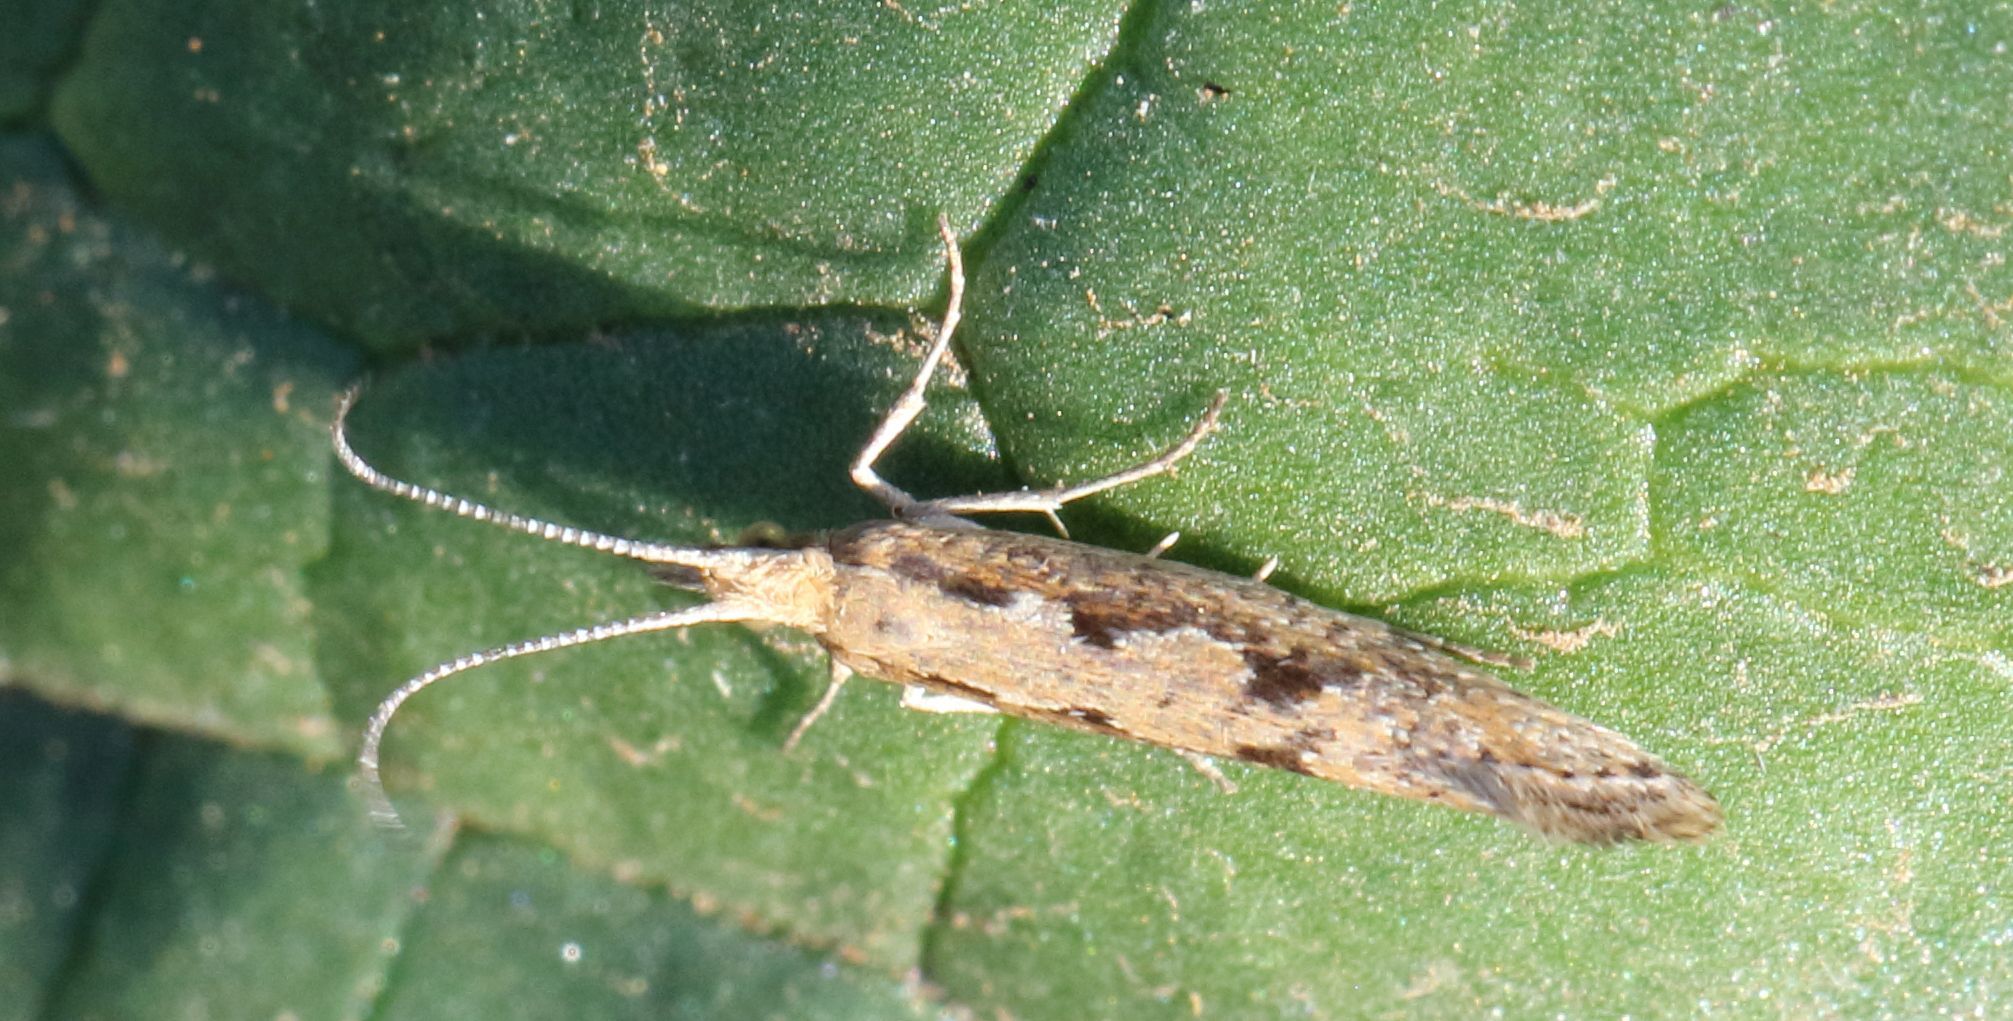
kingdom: Animalia
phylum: Arthropoda
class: Insecta
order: Lepidoptera
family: Plutellidae
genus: Plutella
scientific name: Plutella xylostella
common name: Diamond-back moth
